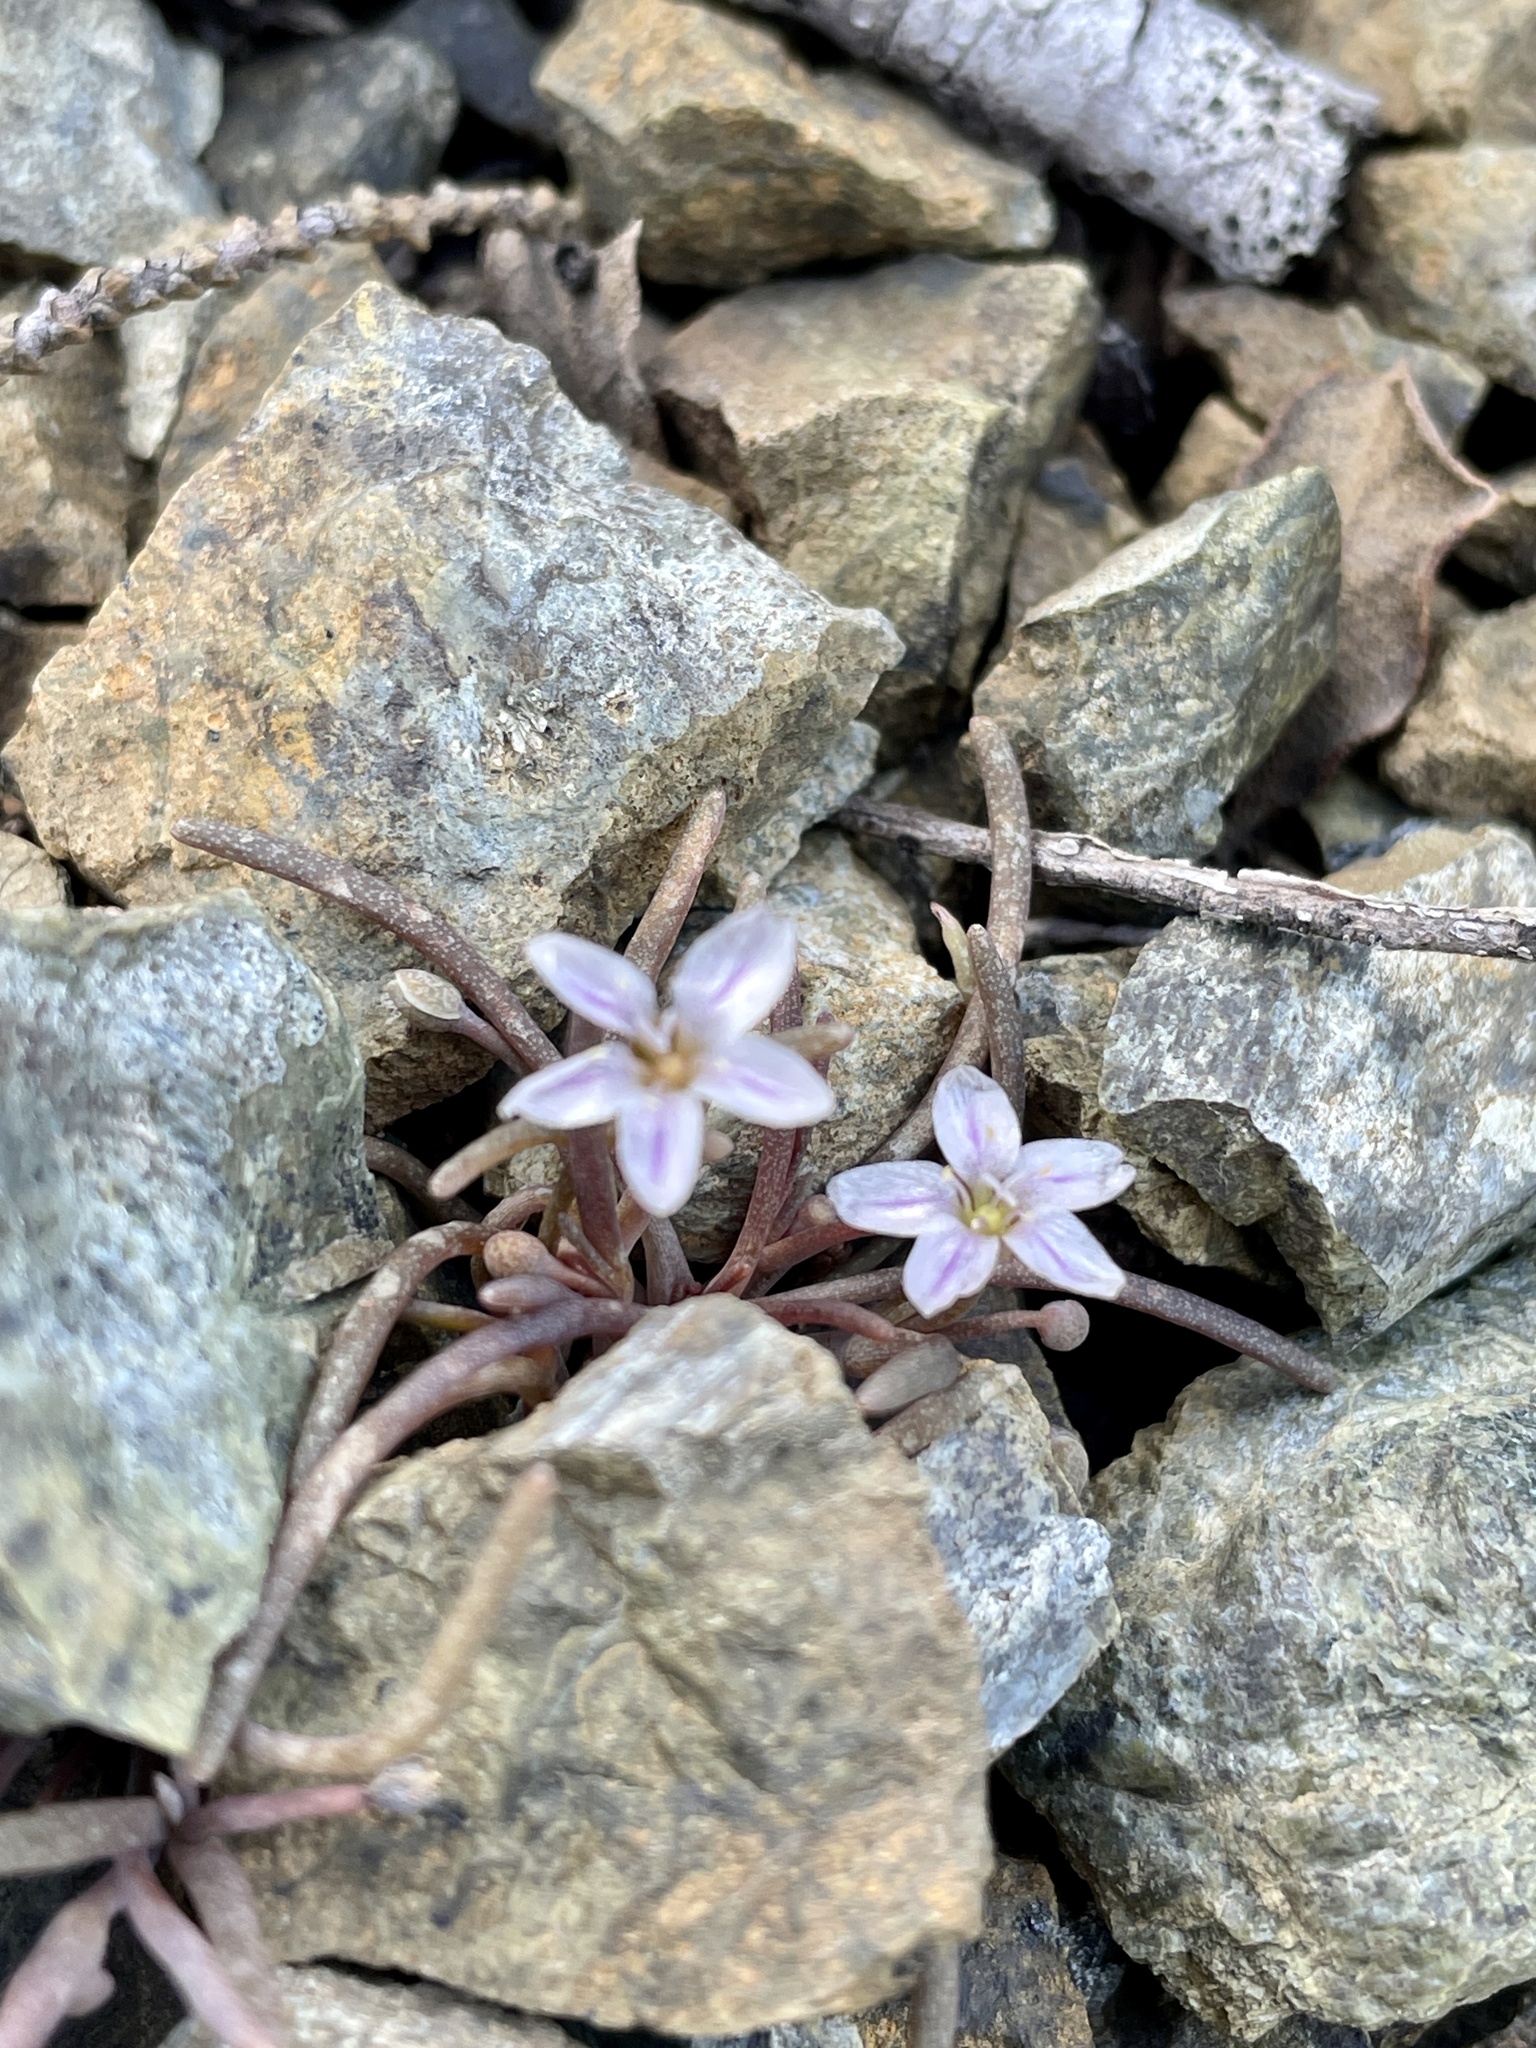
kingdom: Plantae
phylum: Tracheophyta
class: Magnoliopsida
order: Caryophyllales
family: Montiaceae
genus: Claytonia
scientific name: Claytonia exigua
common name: Pale spring beauty
